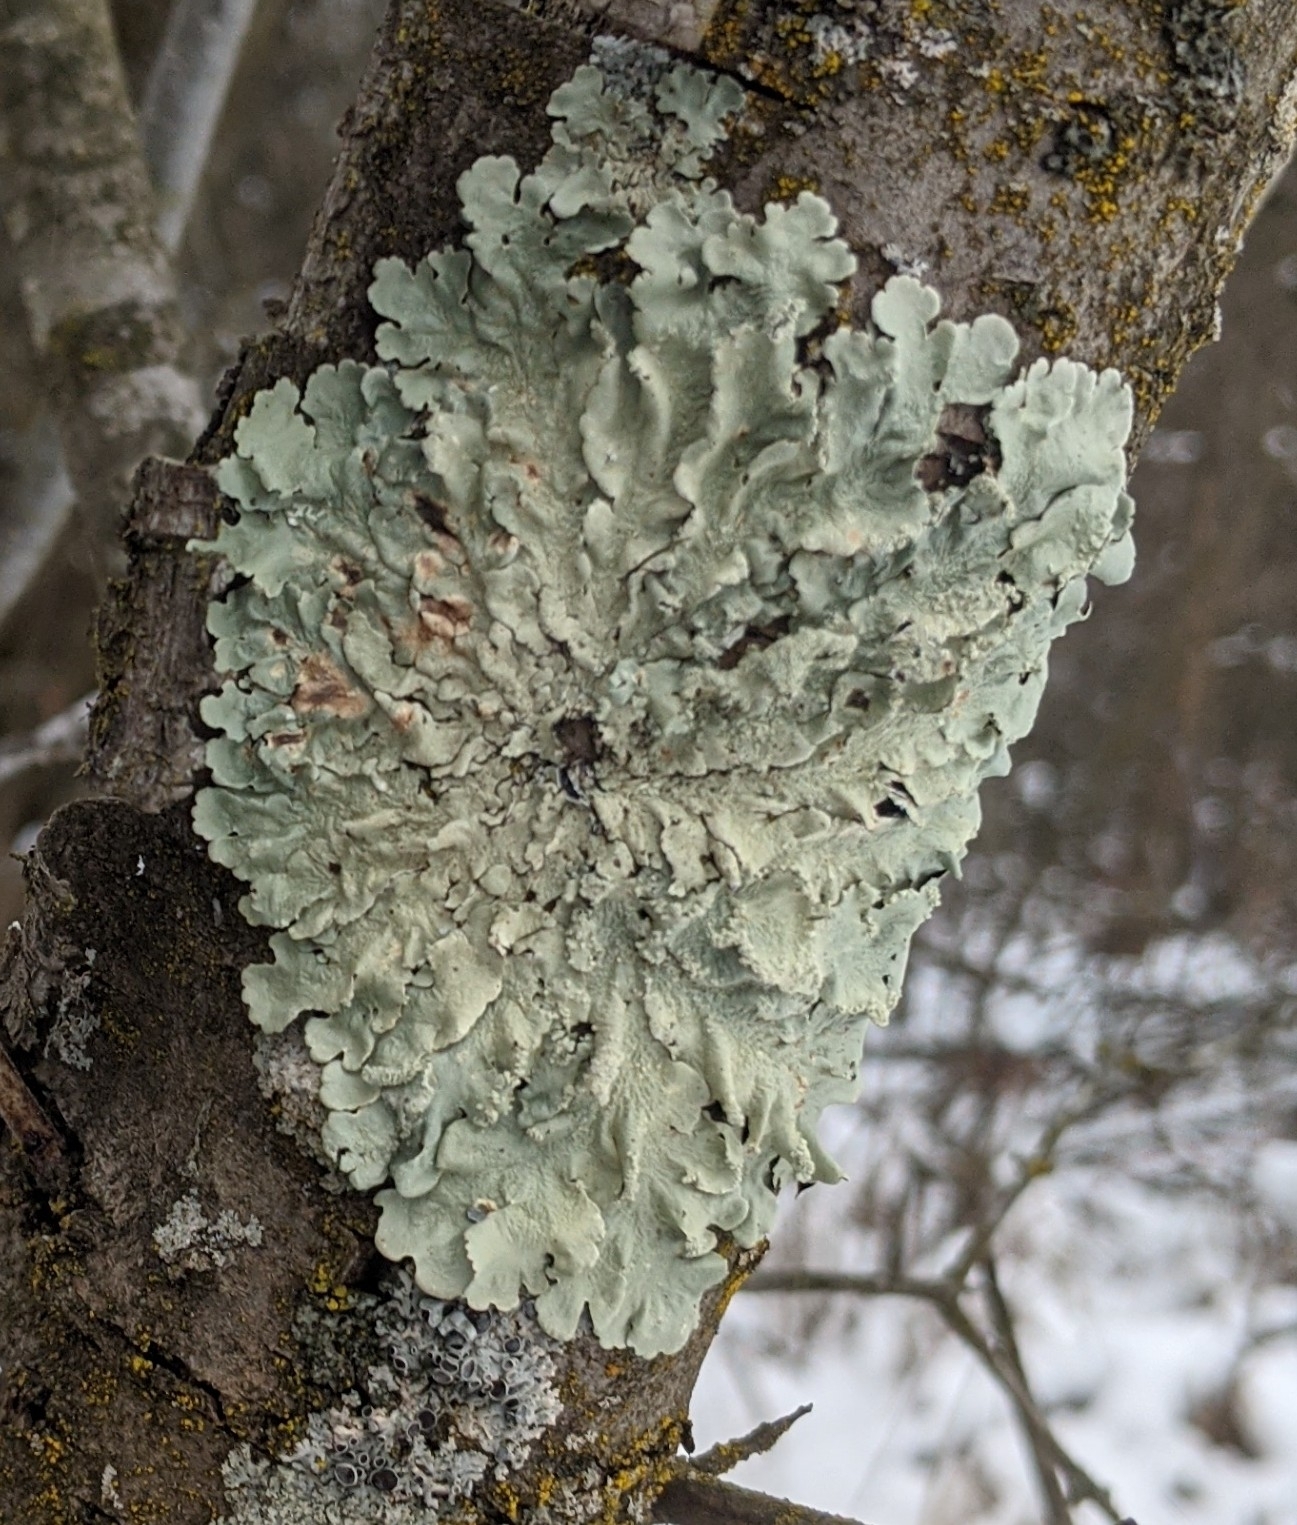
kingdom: Fungi
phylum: Ascomycota
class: Lecanoromycetes
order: Lecanorales
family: Parmeliaceae
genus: Flavoparmelia
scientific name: Flavoparmelia caperata
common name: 40-mile per hour lichen
